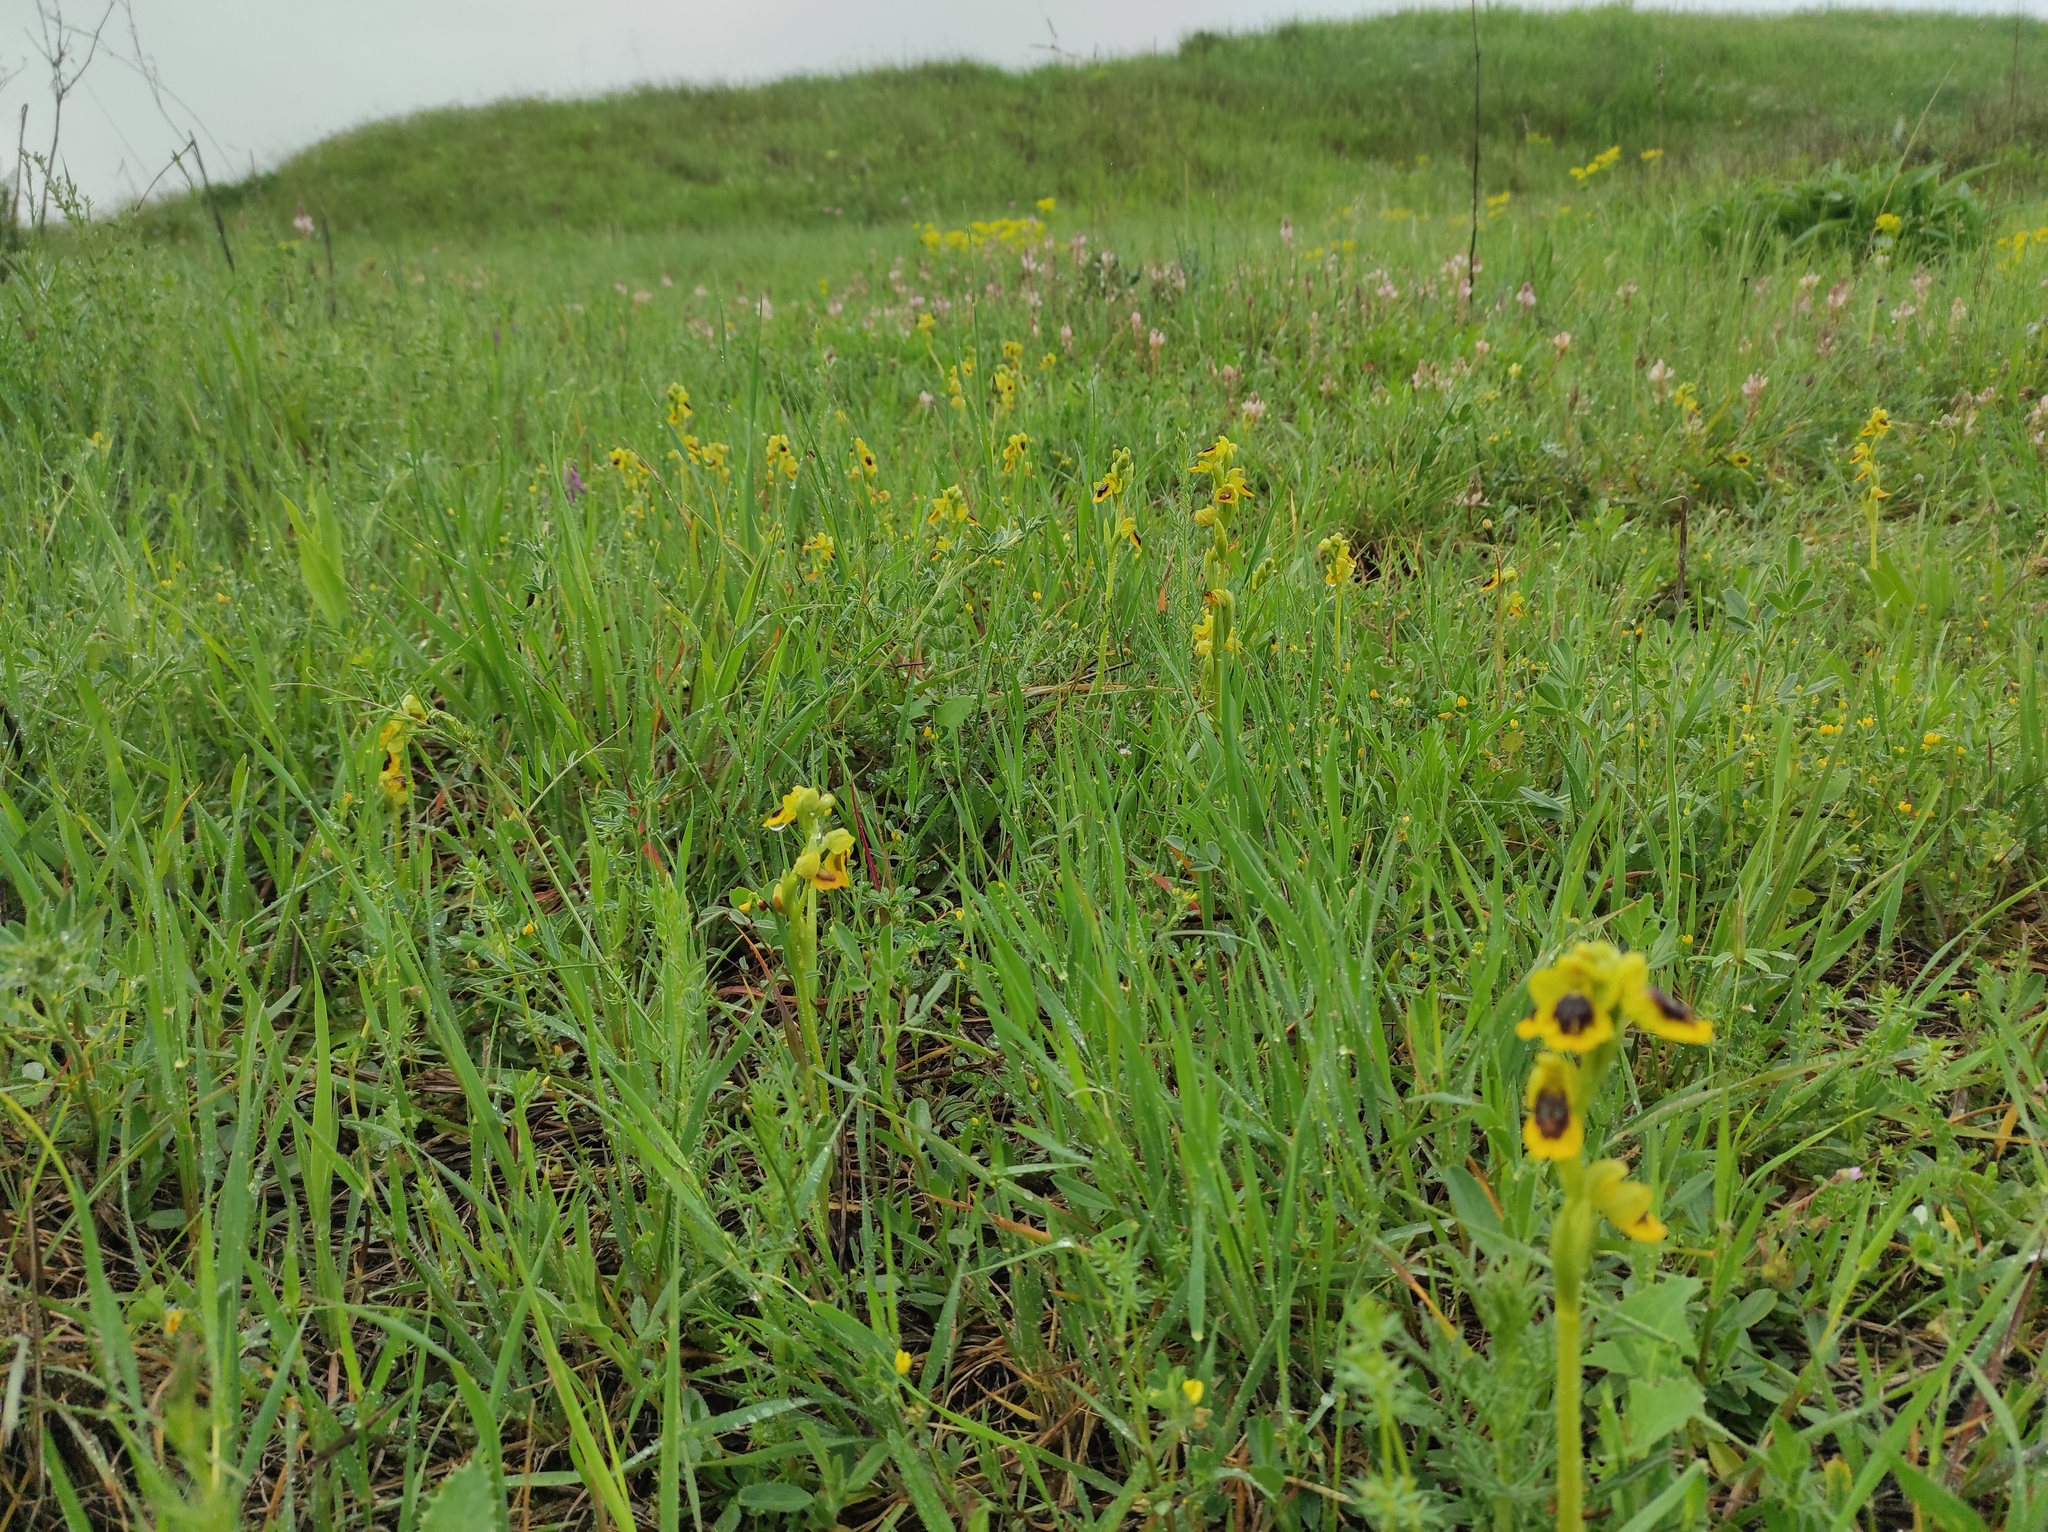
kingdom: Plantae
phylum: Tracheophyta
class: Liliopsida
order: Asparagales
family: Orchidaceae
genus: Ophrys
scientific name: Ophrys lutea
